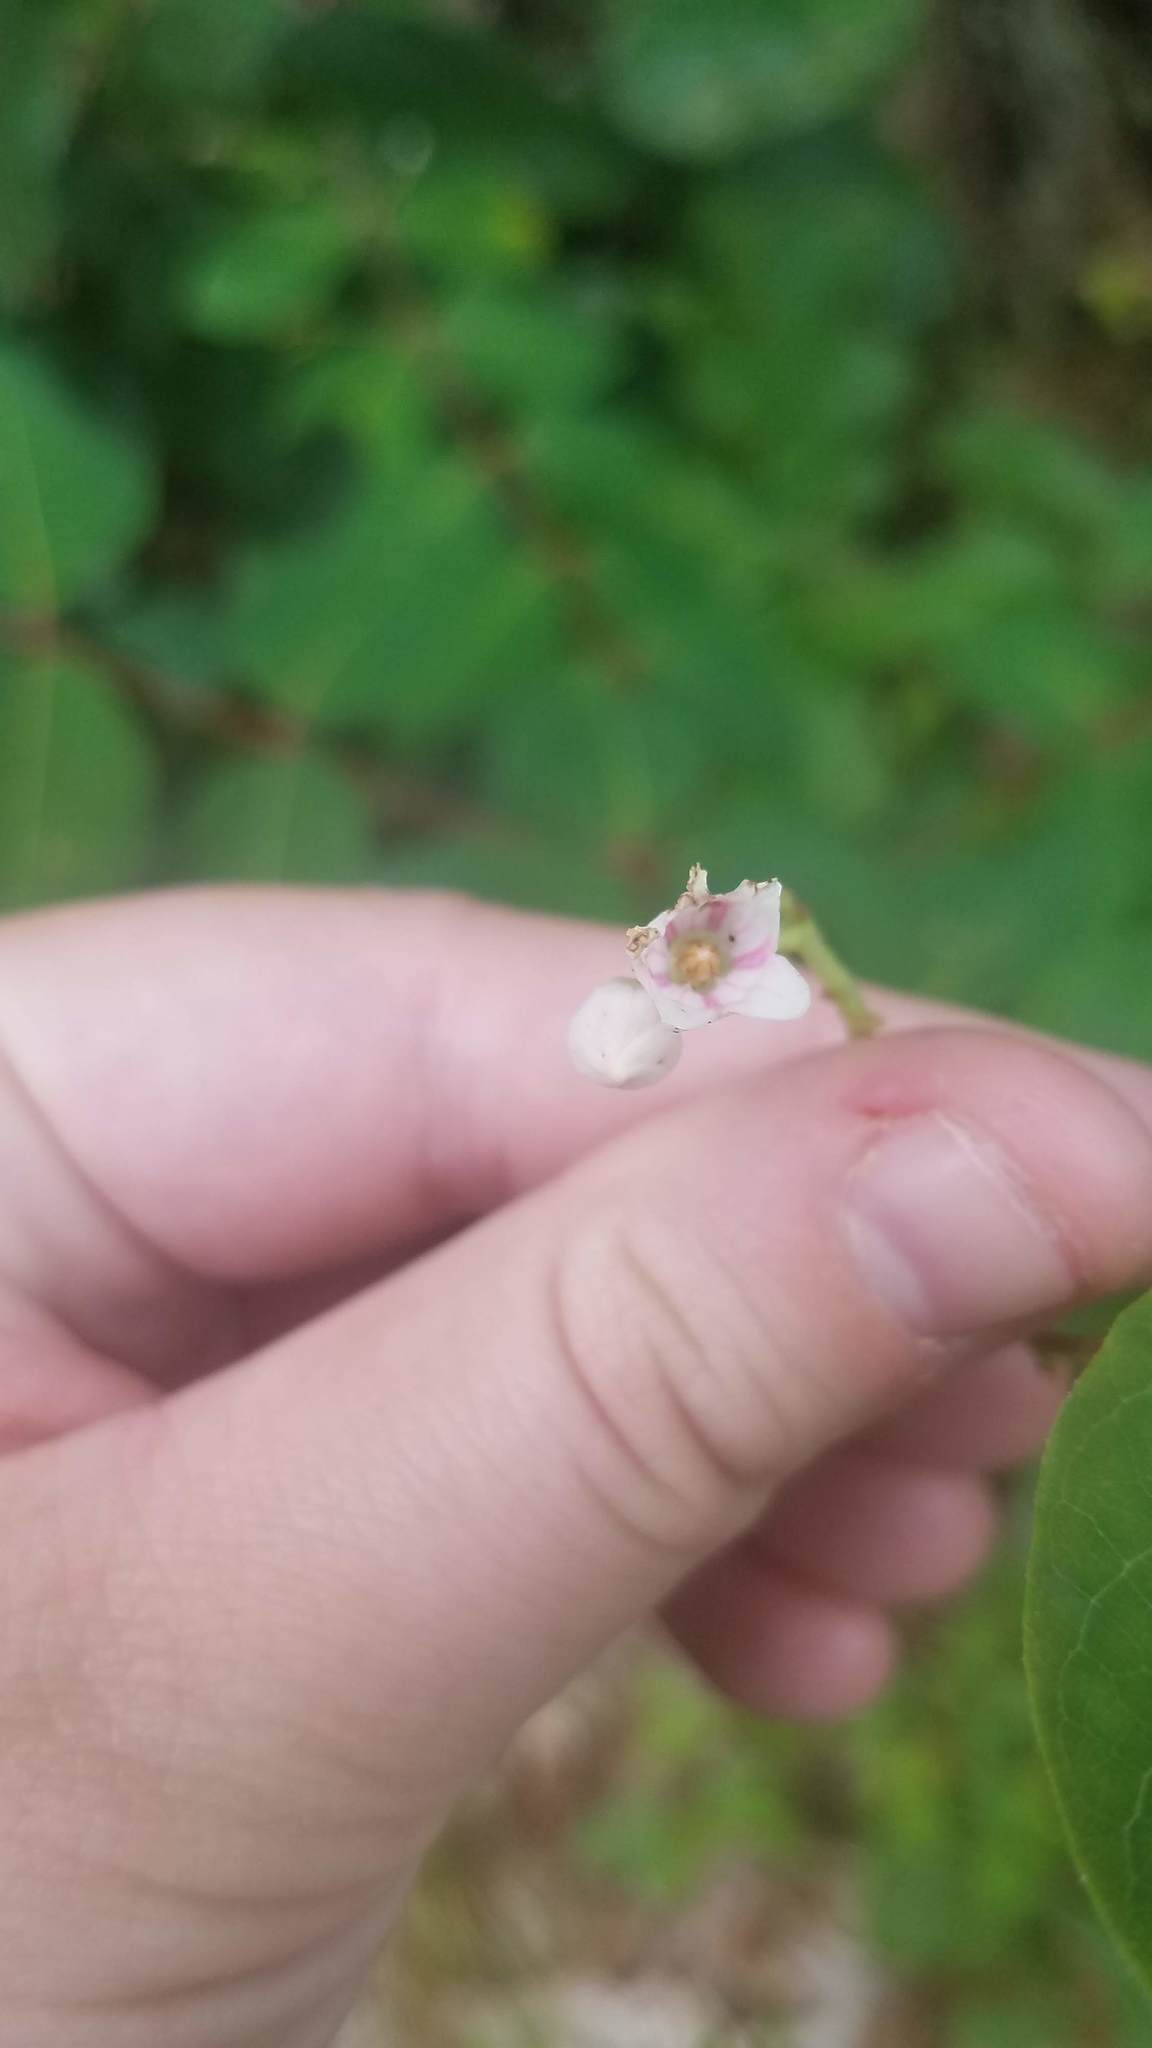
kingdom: Plantae
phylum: Tracheophyta
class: Magnoliopsida
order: Gentianales
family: Apocynaceae
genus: Apocynum
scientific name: Apocynum androsaemifolium
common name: Spreading dogbane
